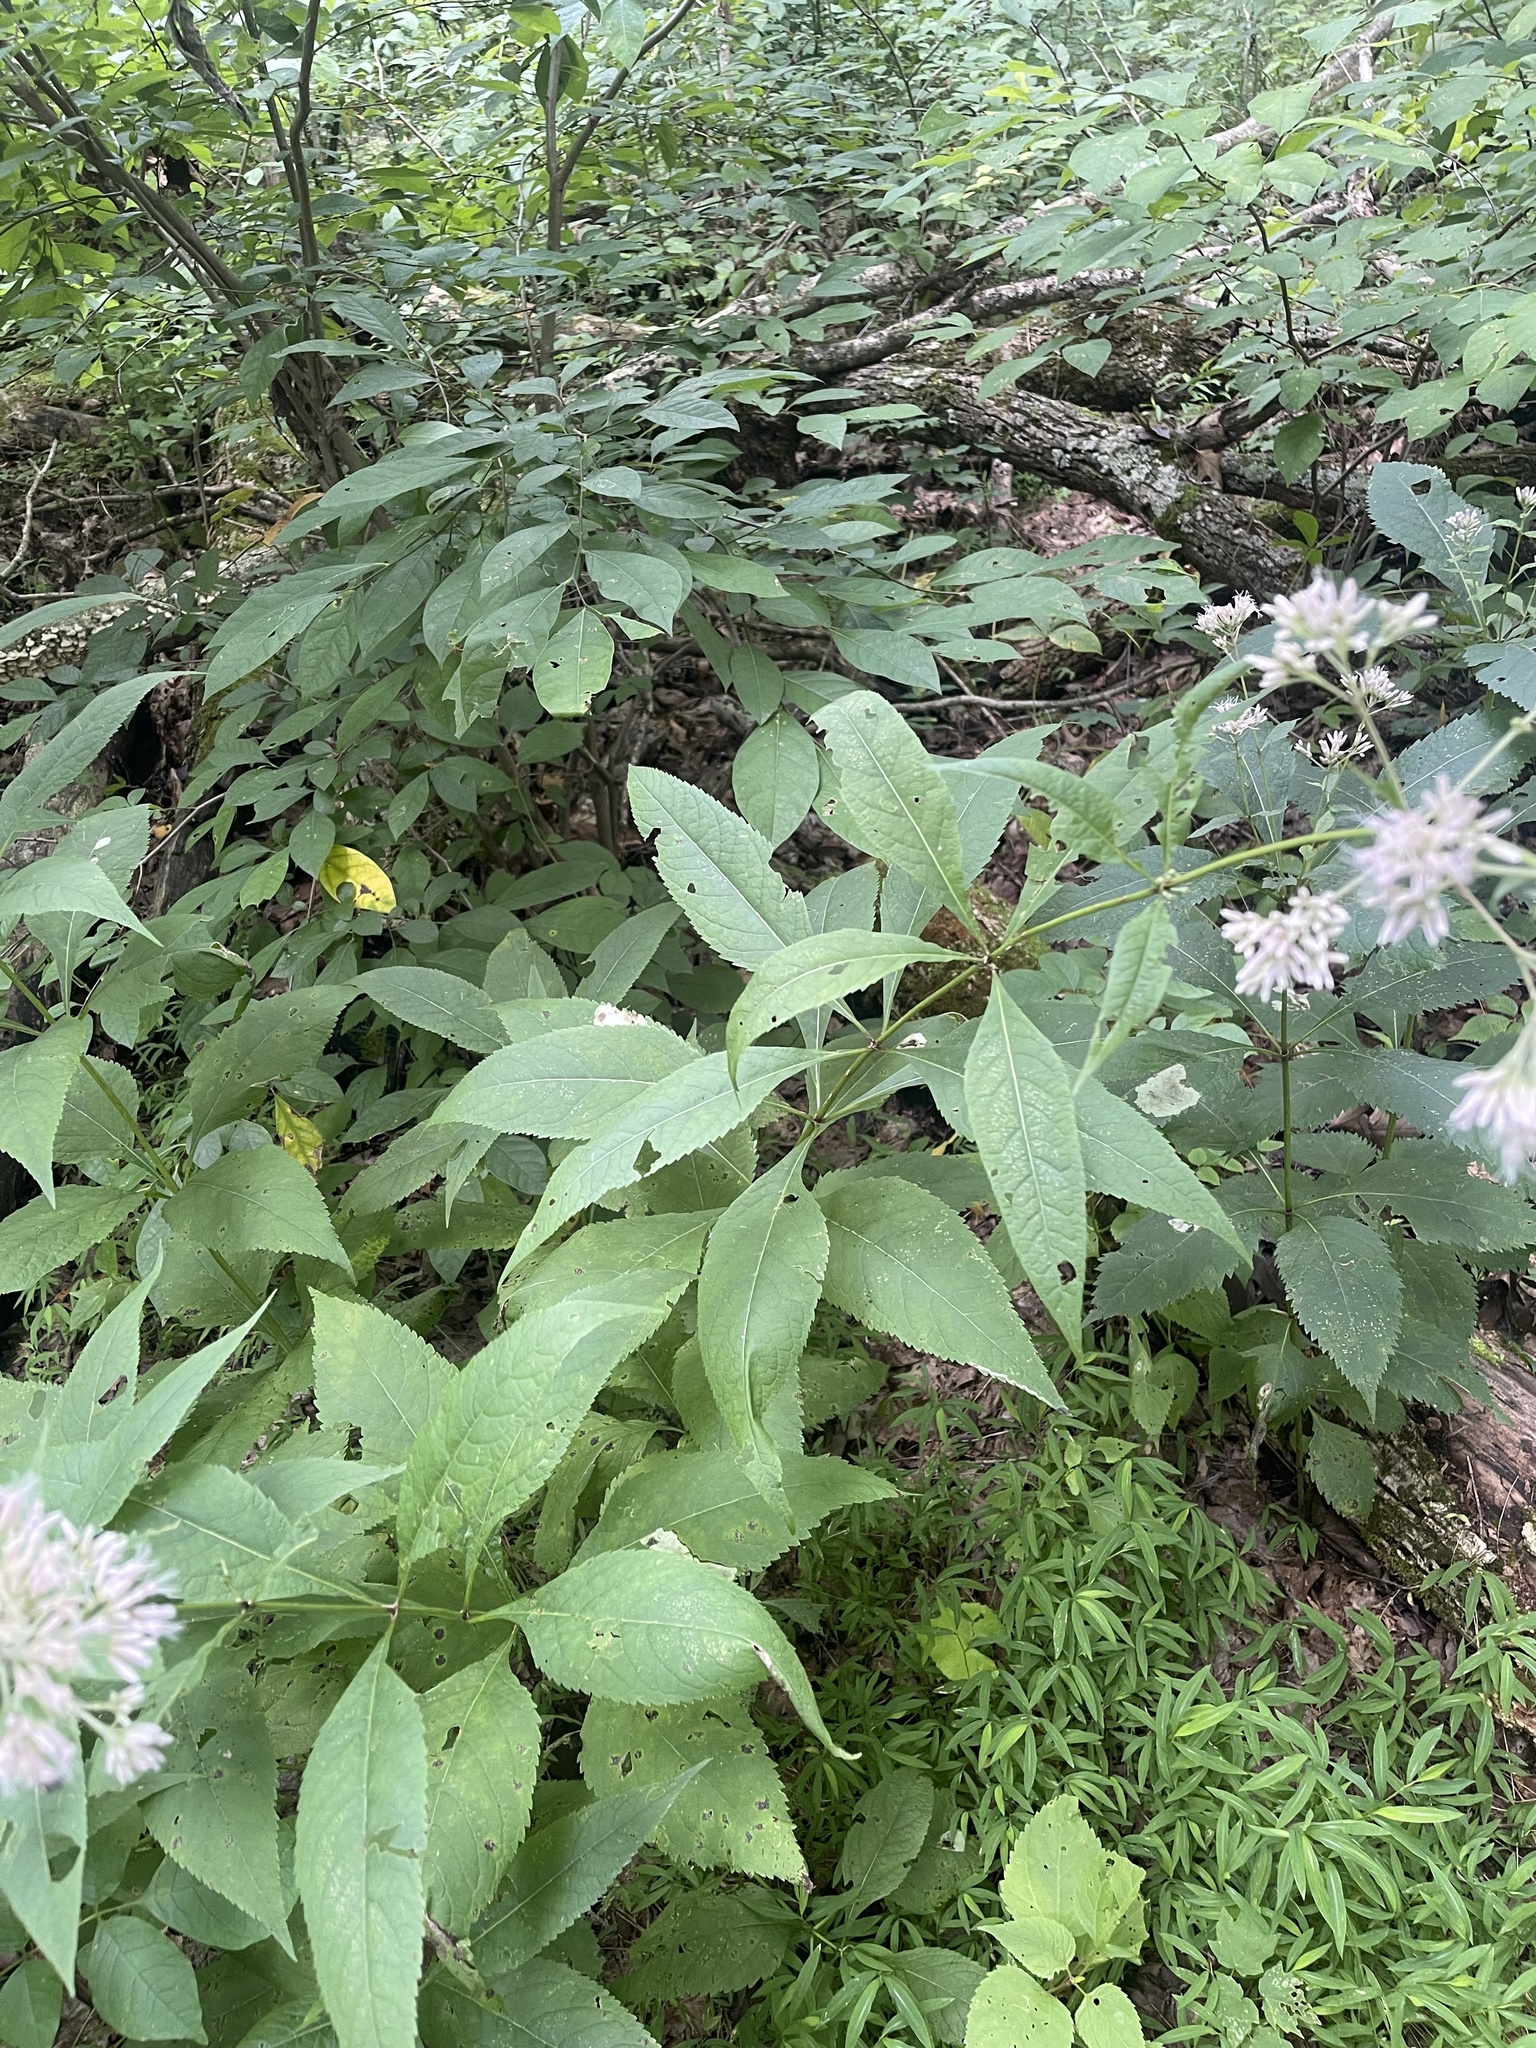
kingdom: Plantae
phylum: Tracheophyta
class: Magnoliopsida
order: Asterales
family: Asteraceae
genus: Eutrochium
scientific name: Eutrochium purpureum
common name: Gravelroot
